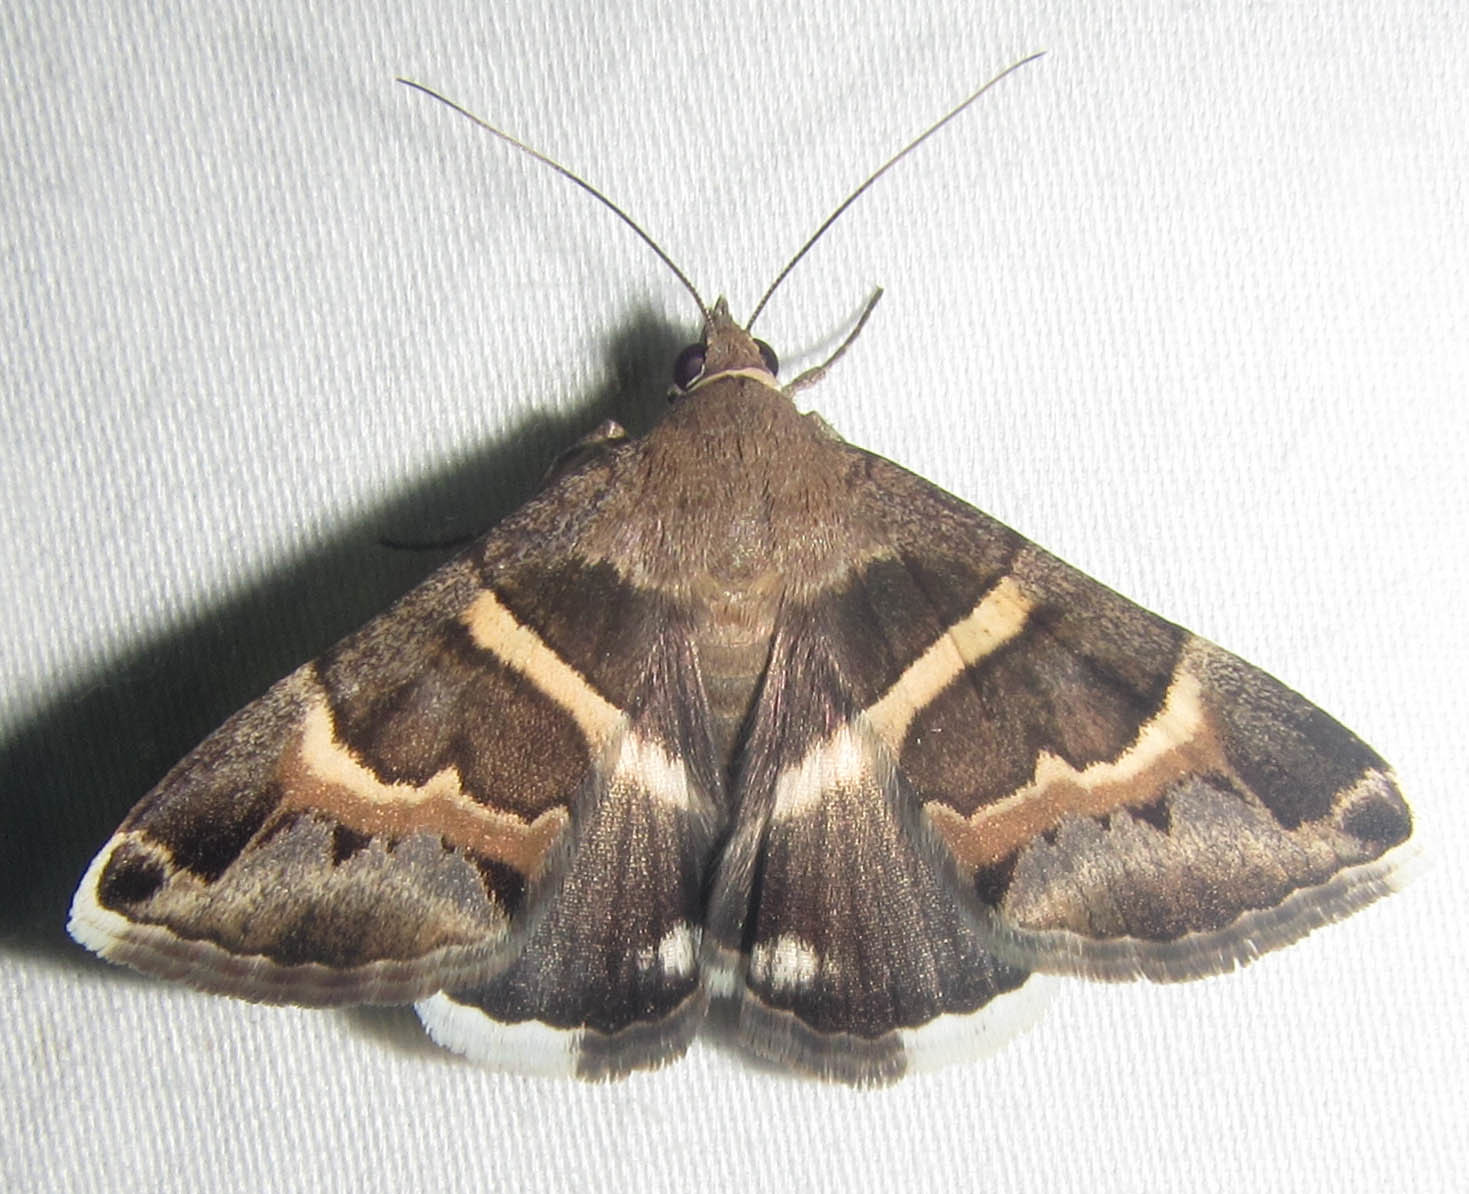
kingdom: Animalia
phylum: Arthropoda
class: Insecta
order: Lepidoptera
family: Erebidae
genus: Grammodes
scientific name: Grammodes stolida
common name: Geometrician
